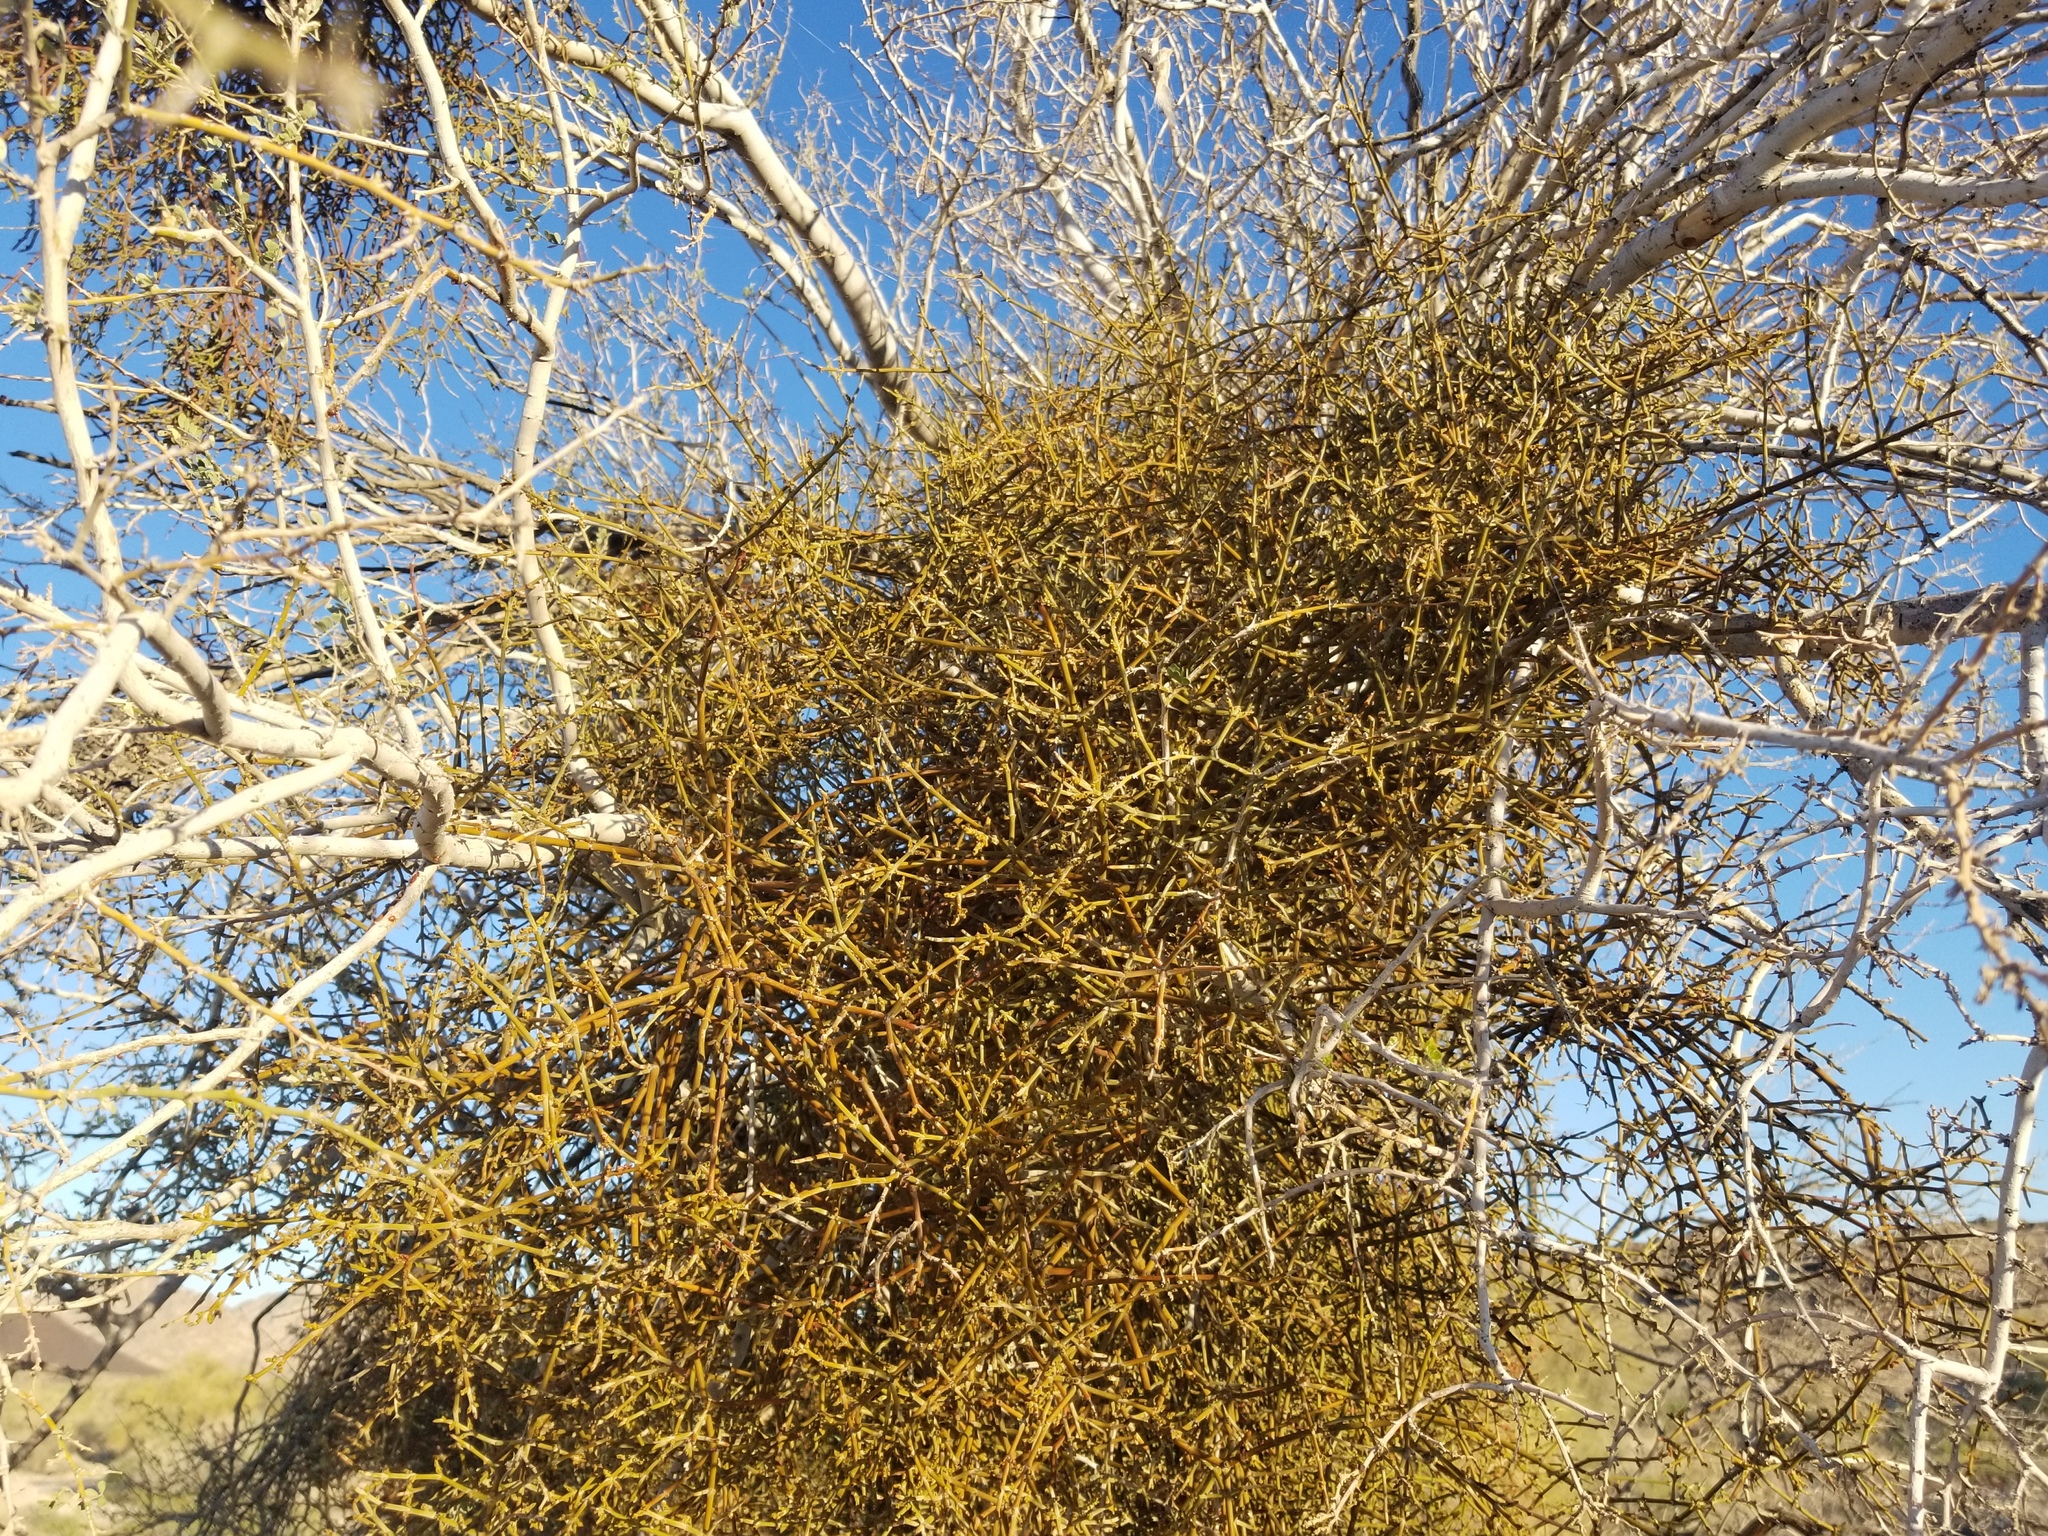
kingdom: Plantae
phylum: Tracheophyta
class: Magnoliopsida
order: Santalales
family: Viscaceae
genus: Phoradendron
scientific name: Phoradendron californicum
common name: Acacia mistletoe
